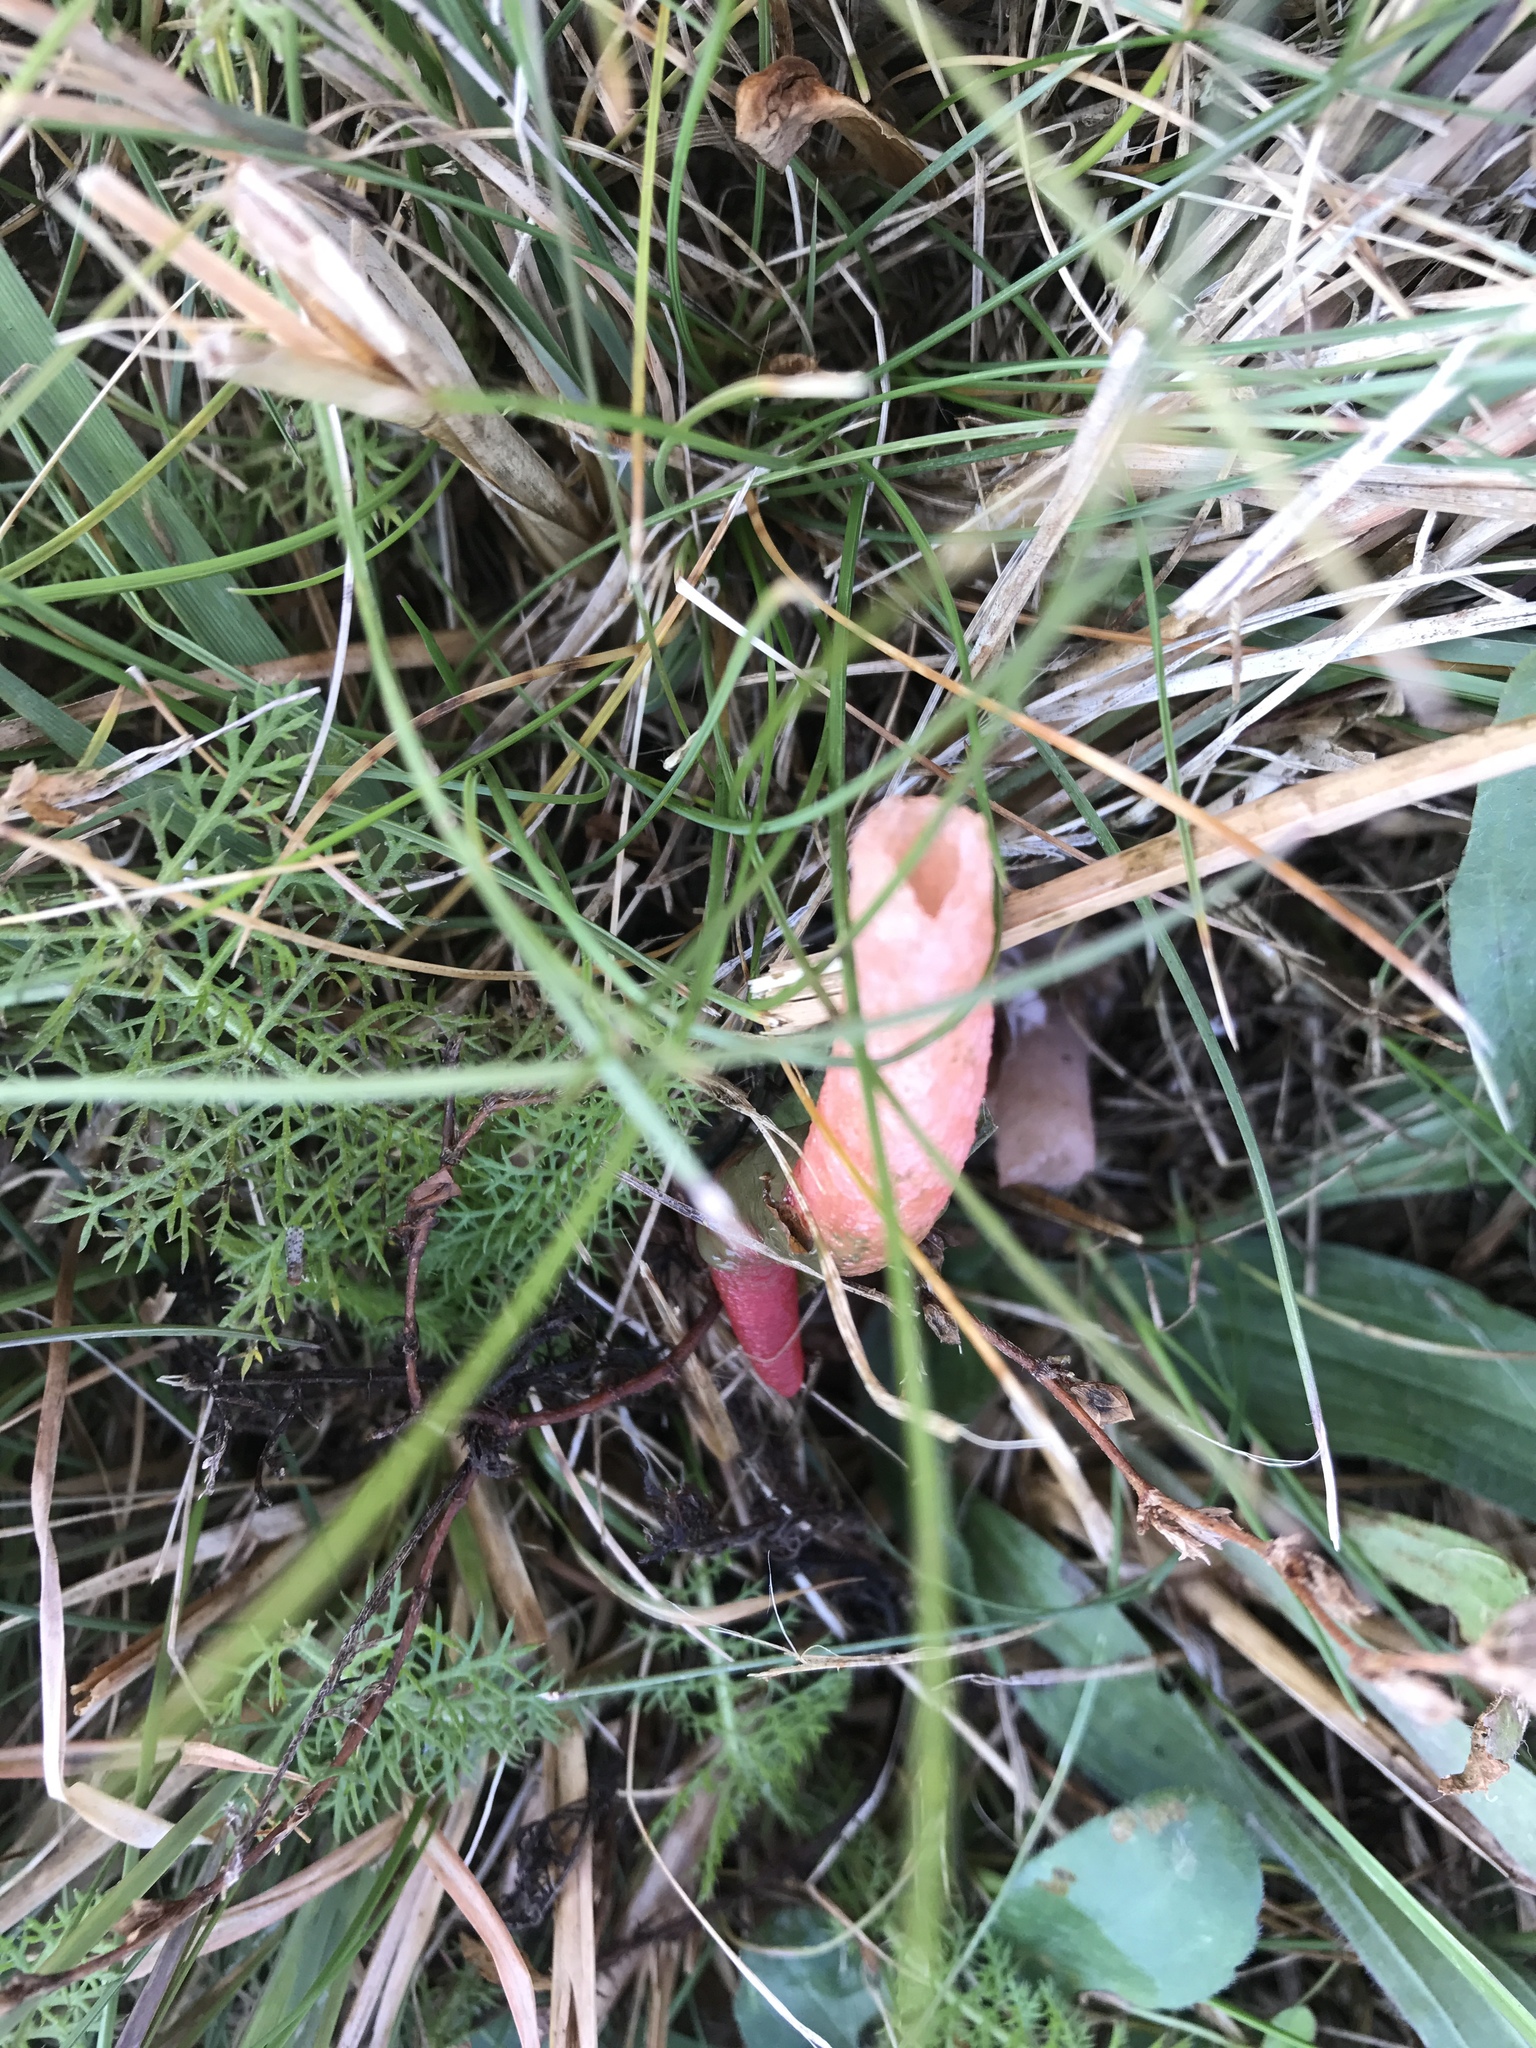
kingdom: Fungi
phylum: Basidiomycota
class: Agaricomycetes
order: Phallales
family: Phallaceae
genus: Mutinus
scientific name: Mutinus elegans
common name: Devil's dipstick
